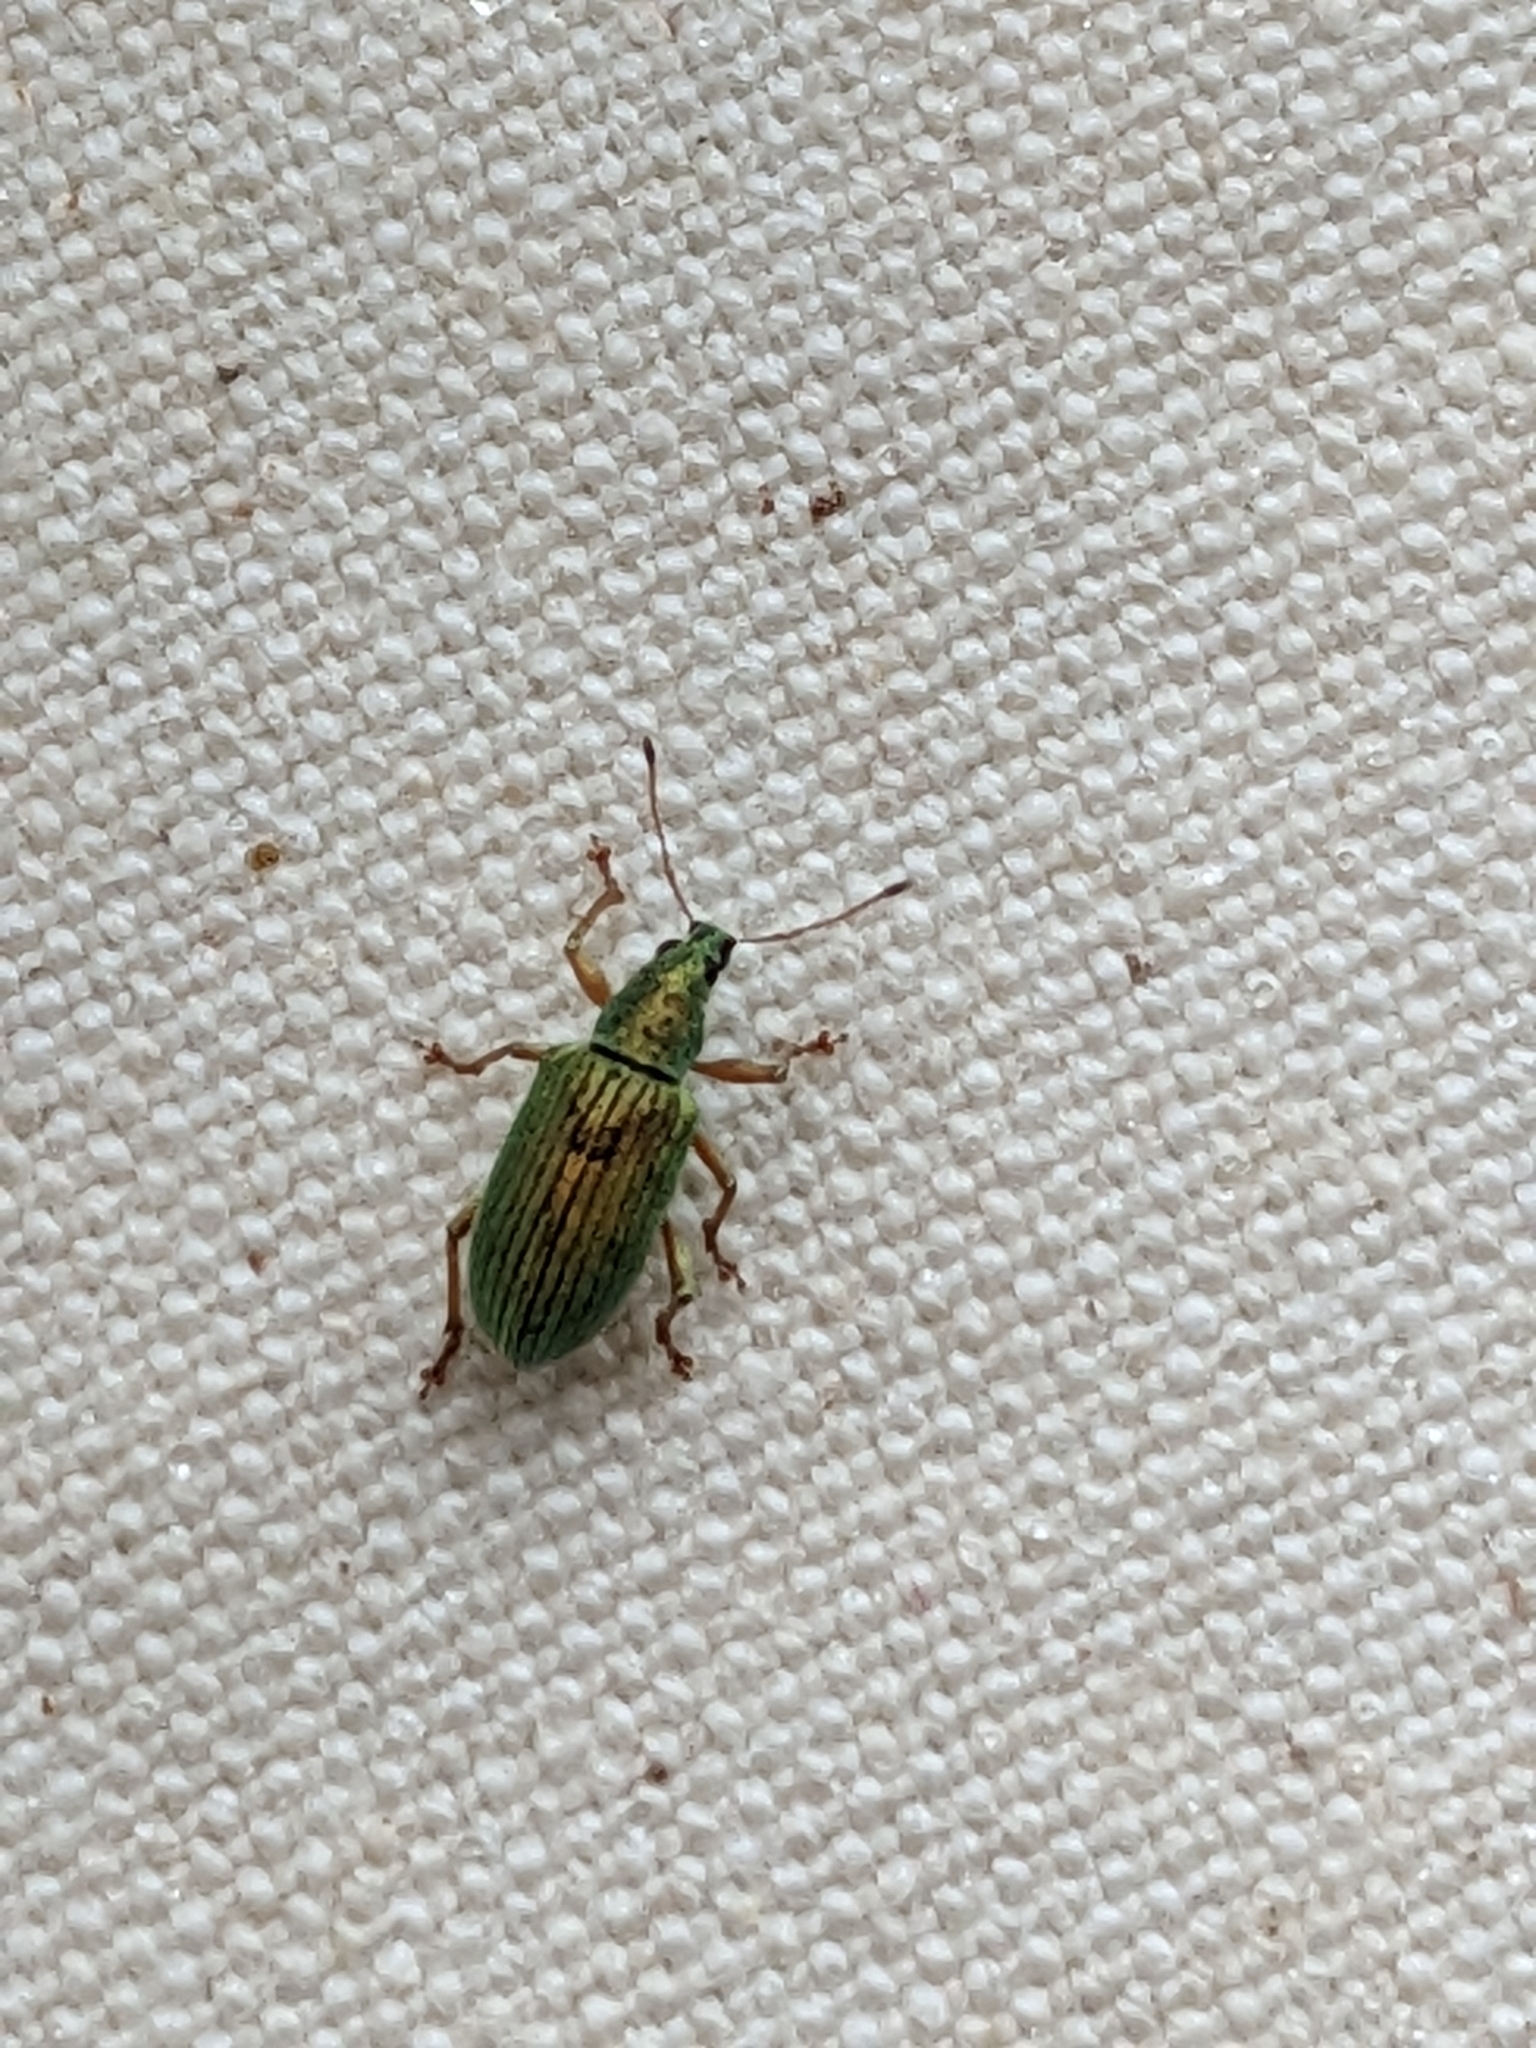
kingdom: Animalia
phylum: Arthropoda
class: Insecta
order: Coleoptera
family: Curculionidae
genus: Polydrusus
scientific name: Polydrusus formosus
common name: Weevil
